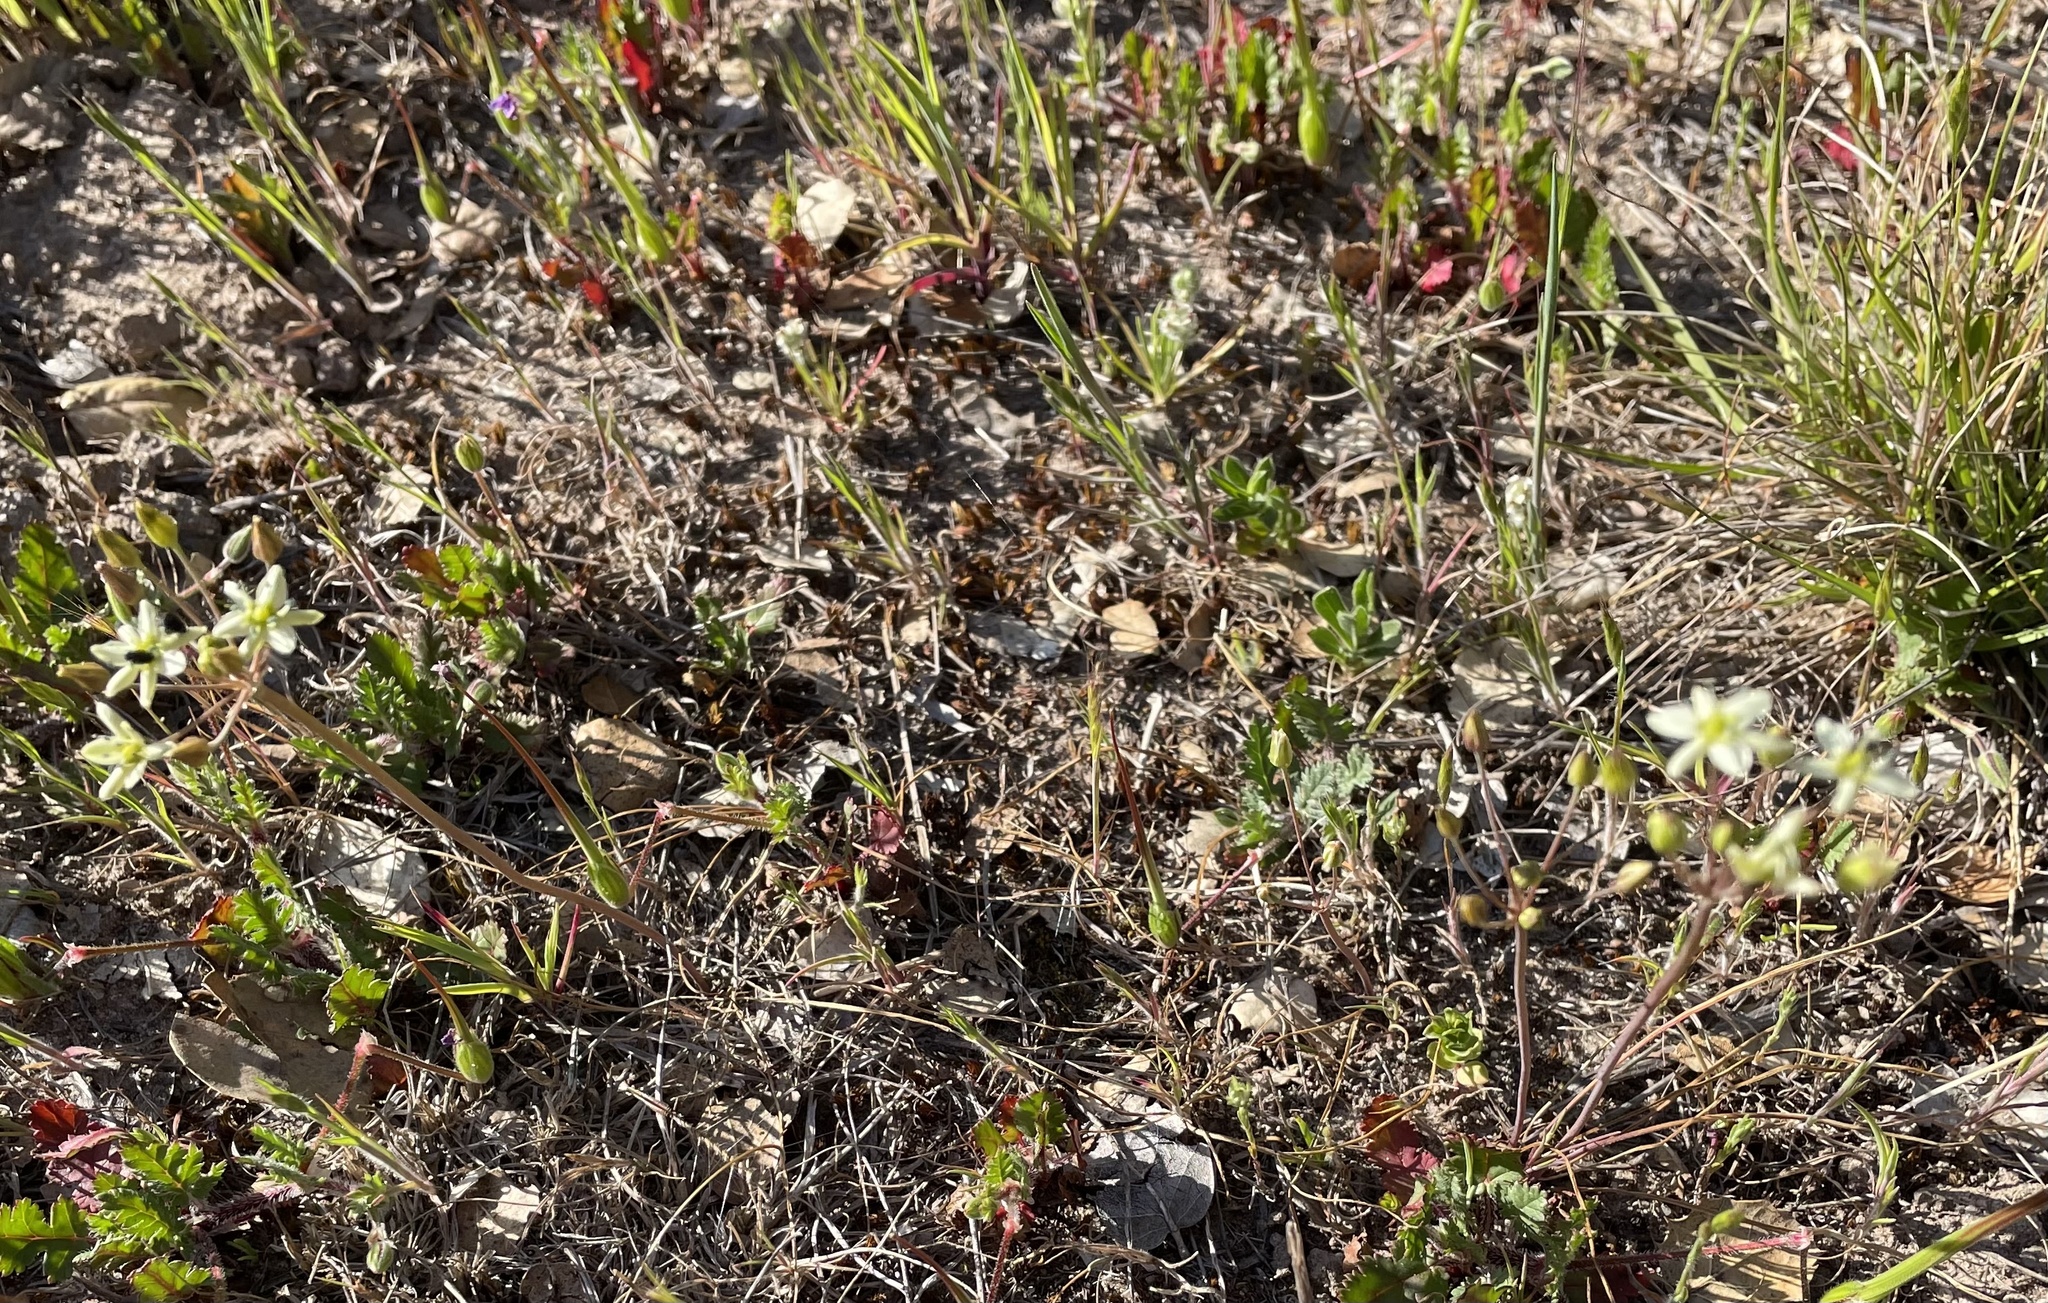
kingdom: Plantae
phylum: Tracheophyta
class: Liliopsida
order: Asparagales
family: Asparagaceae
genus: Muilla
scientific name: Muilla maritima
